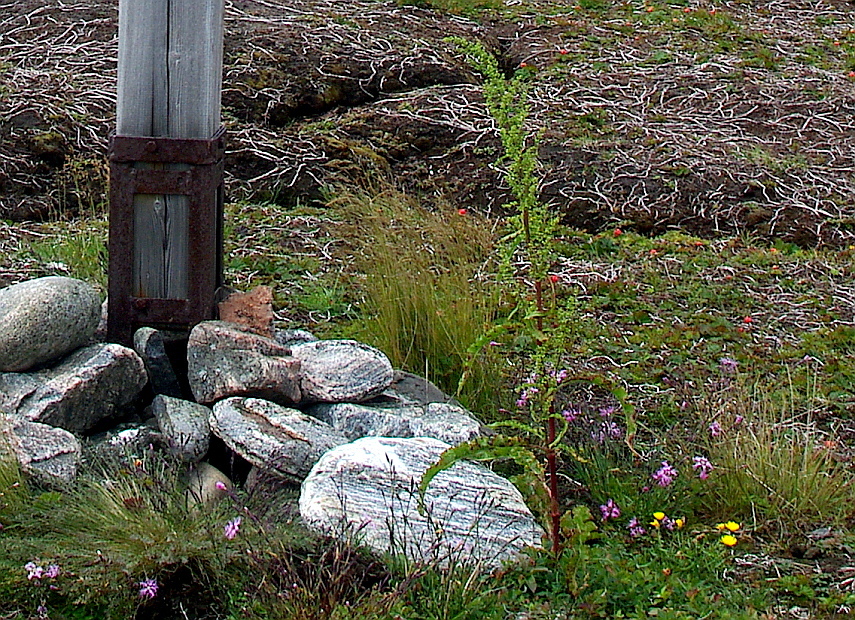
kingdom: Plantae
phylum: Tracheophyta
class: Magnoliopsida
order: Caryophyllales
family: Polygonaceae
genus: Rumex
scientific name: Rumex pseudonatronatus
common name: Field dock
